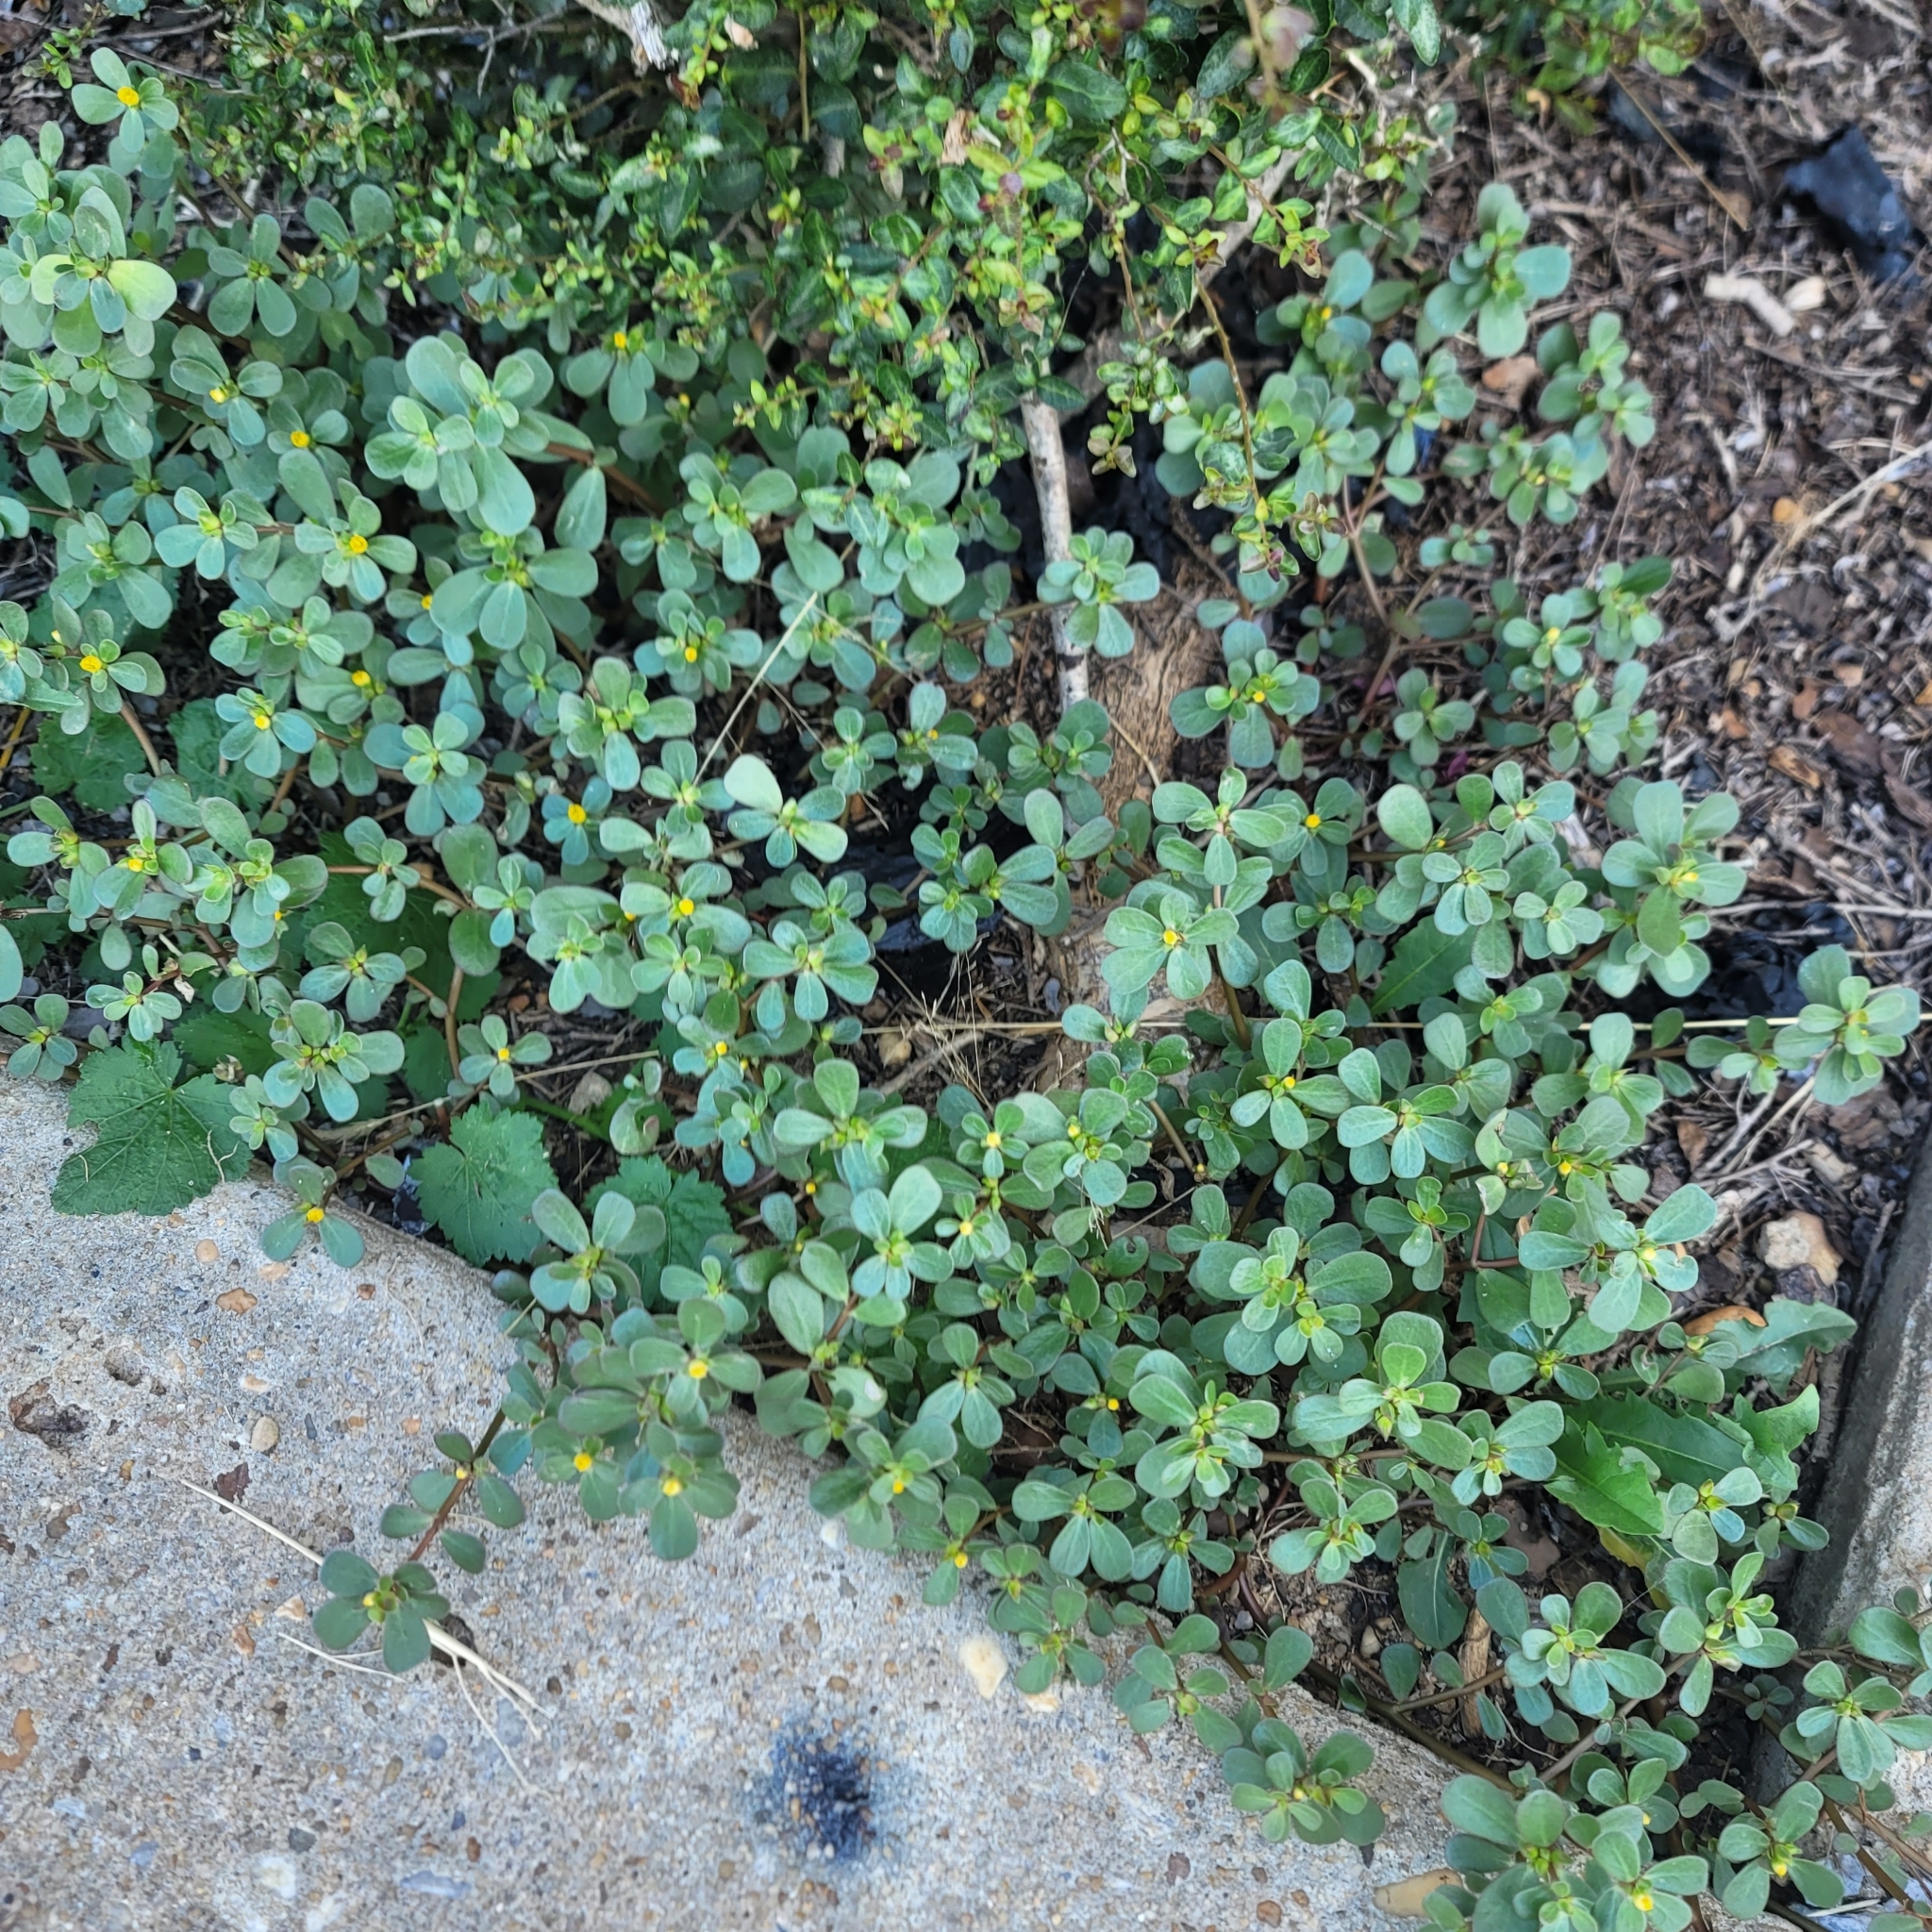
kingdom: Plantae
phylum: Tracheophyta
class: Magnoliopsida
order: Caryophyllales
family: Portulacaceae
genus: Portulaca
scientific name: Portulaca oleracea
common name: Common purslane
